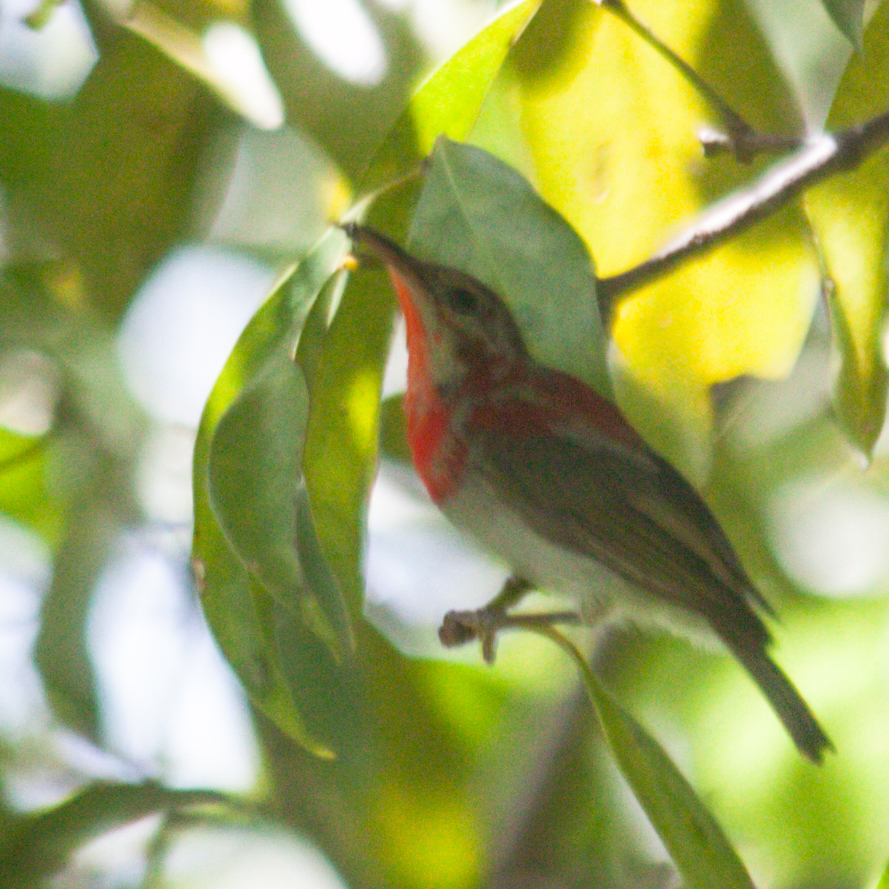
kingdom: Animalia
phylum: Chordata
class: Aves
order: Passeriformes
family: Nectariniidae
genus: Aethopyga
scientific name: Aethopyga siparaja
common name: Crimson sunbird
